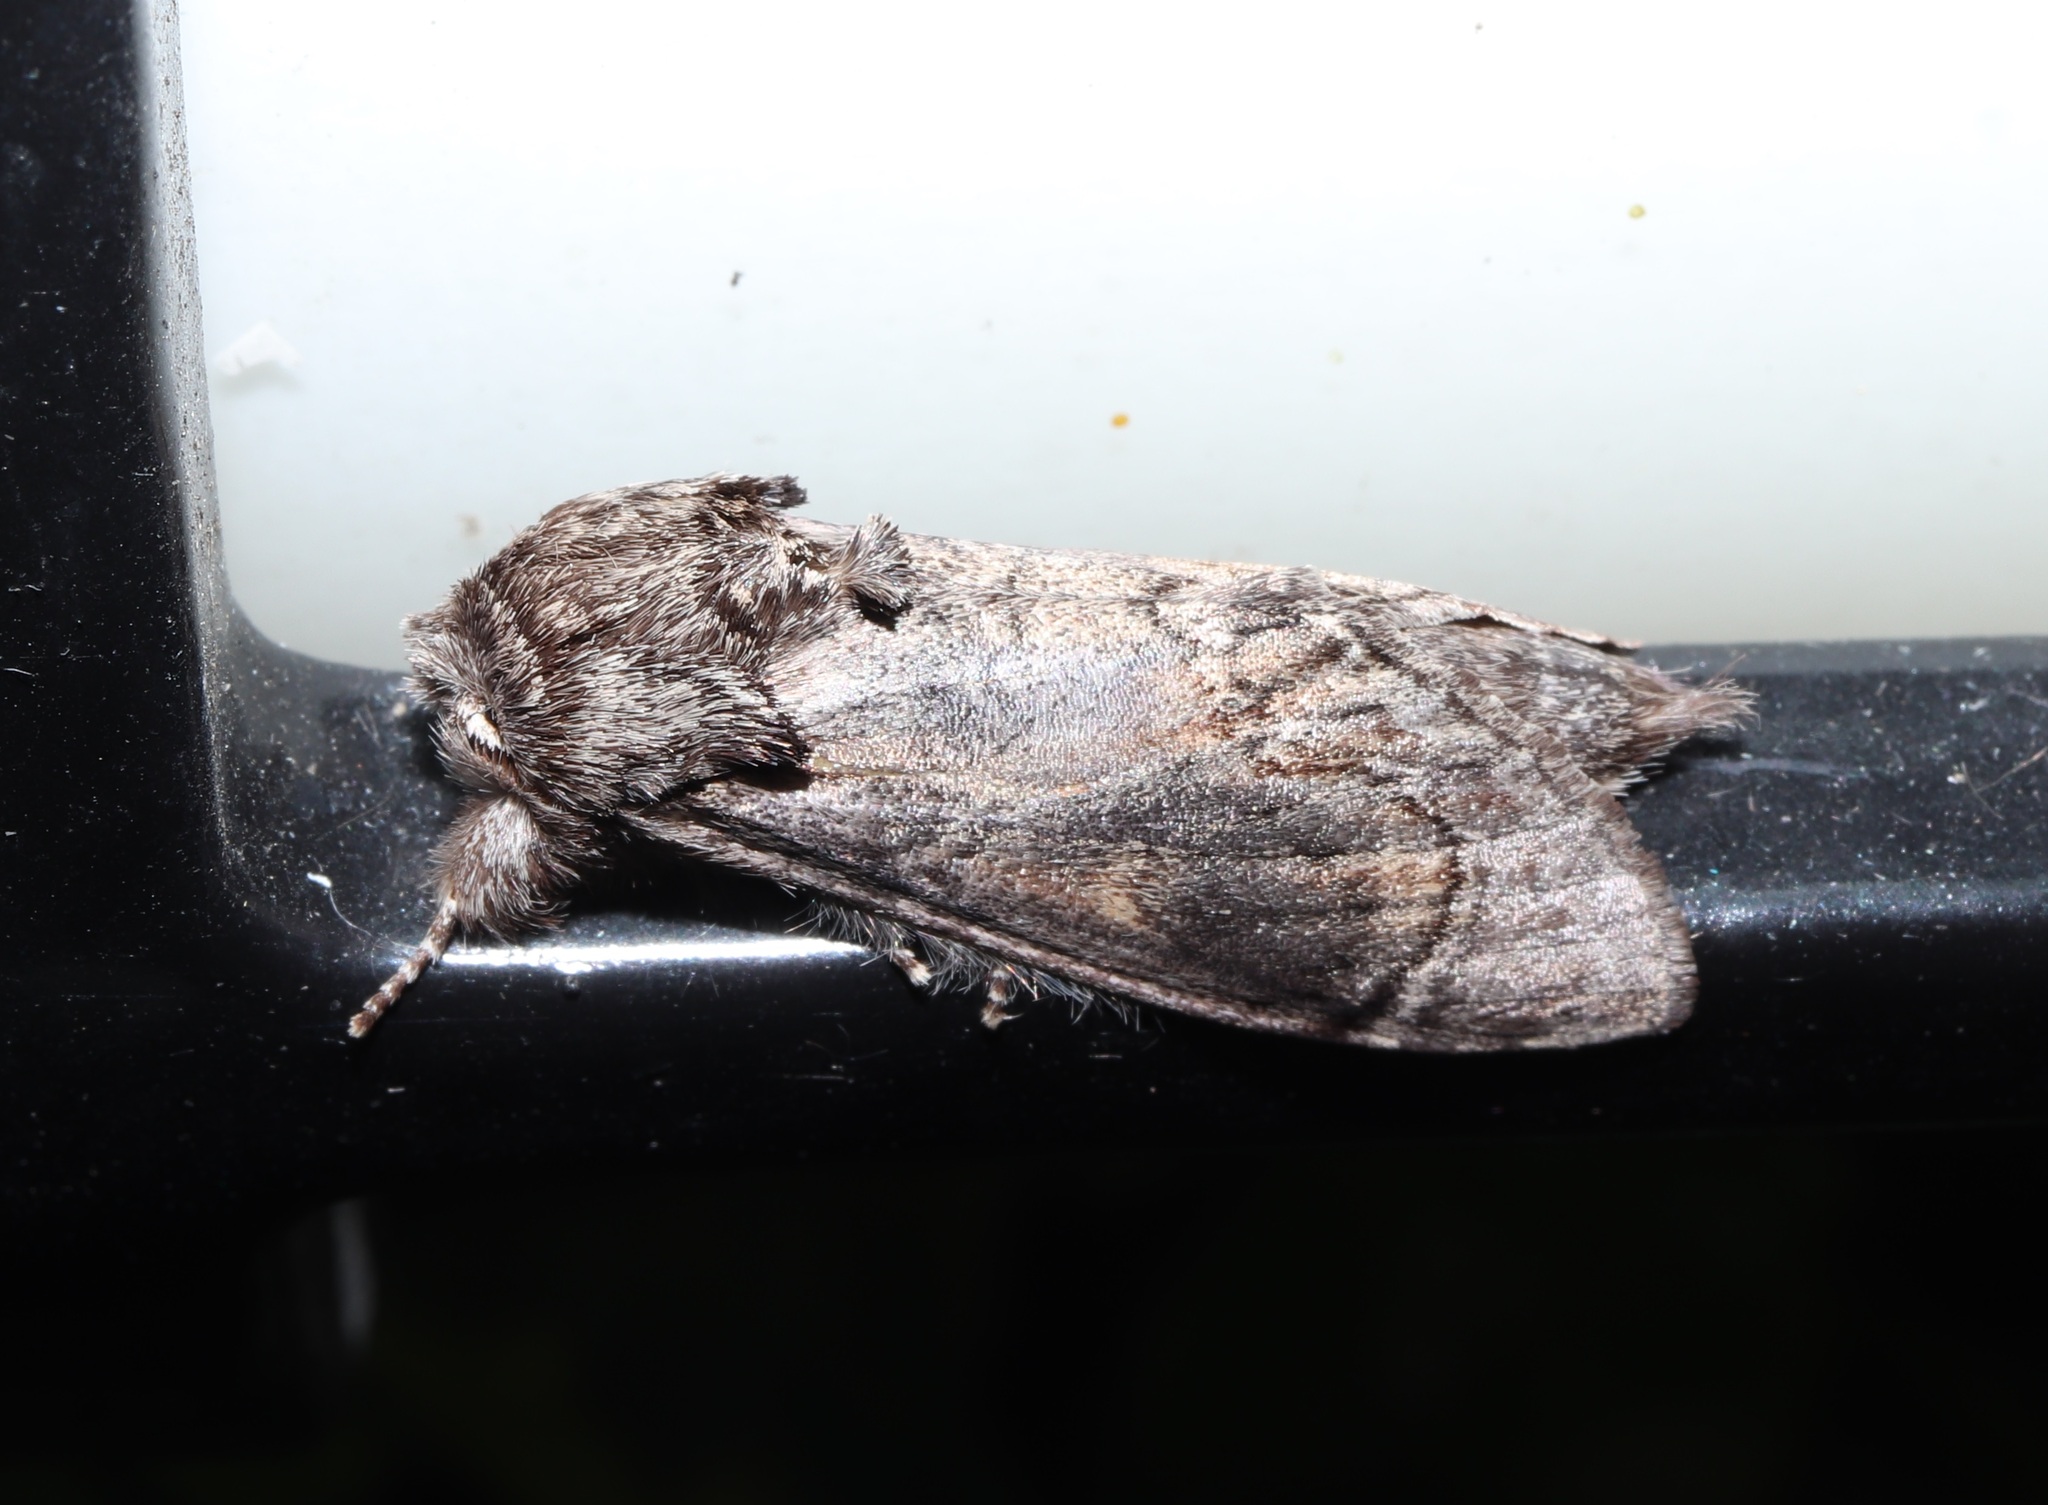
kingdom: Animalia
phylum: Arthropoda
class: Insecta
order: Lepidoptera
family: Notodontidae
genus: Fentonia
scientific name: Fentonia ocypete
